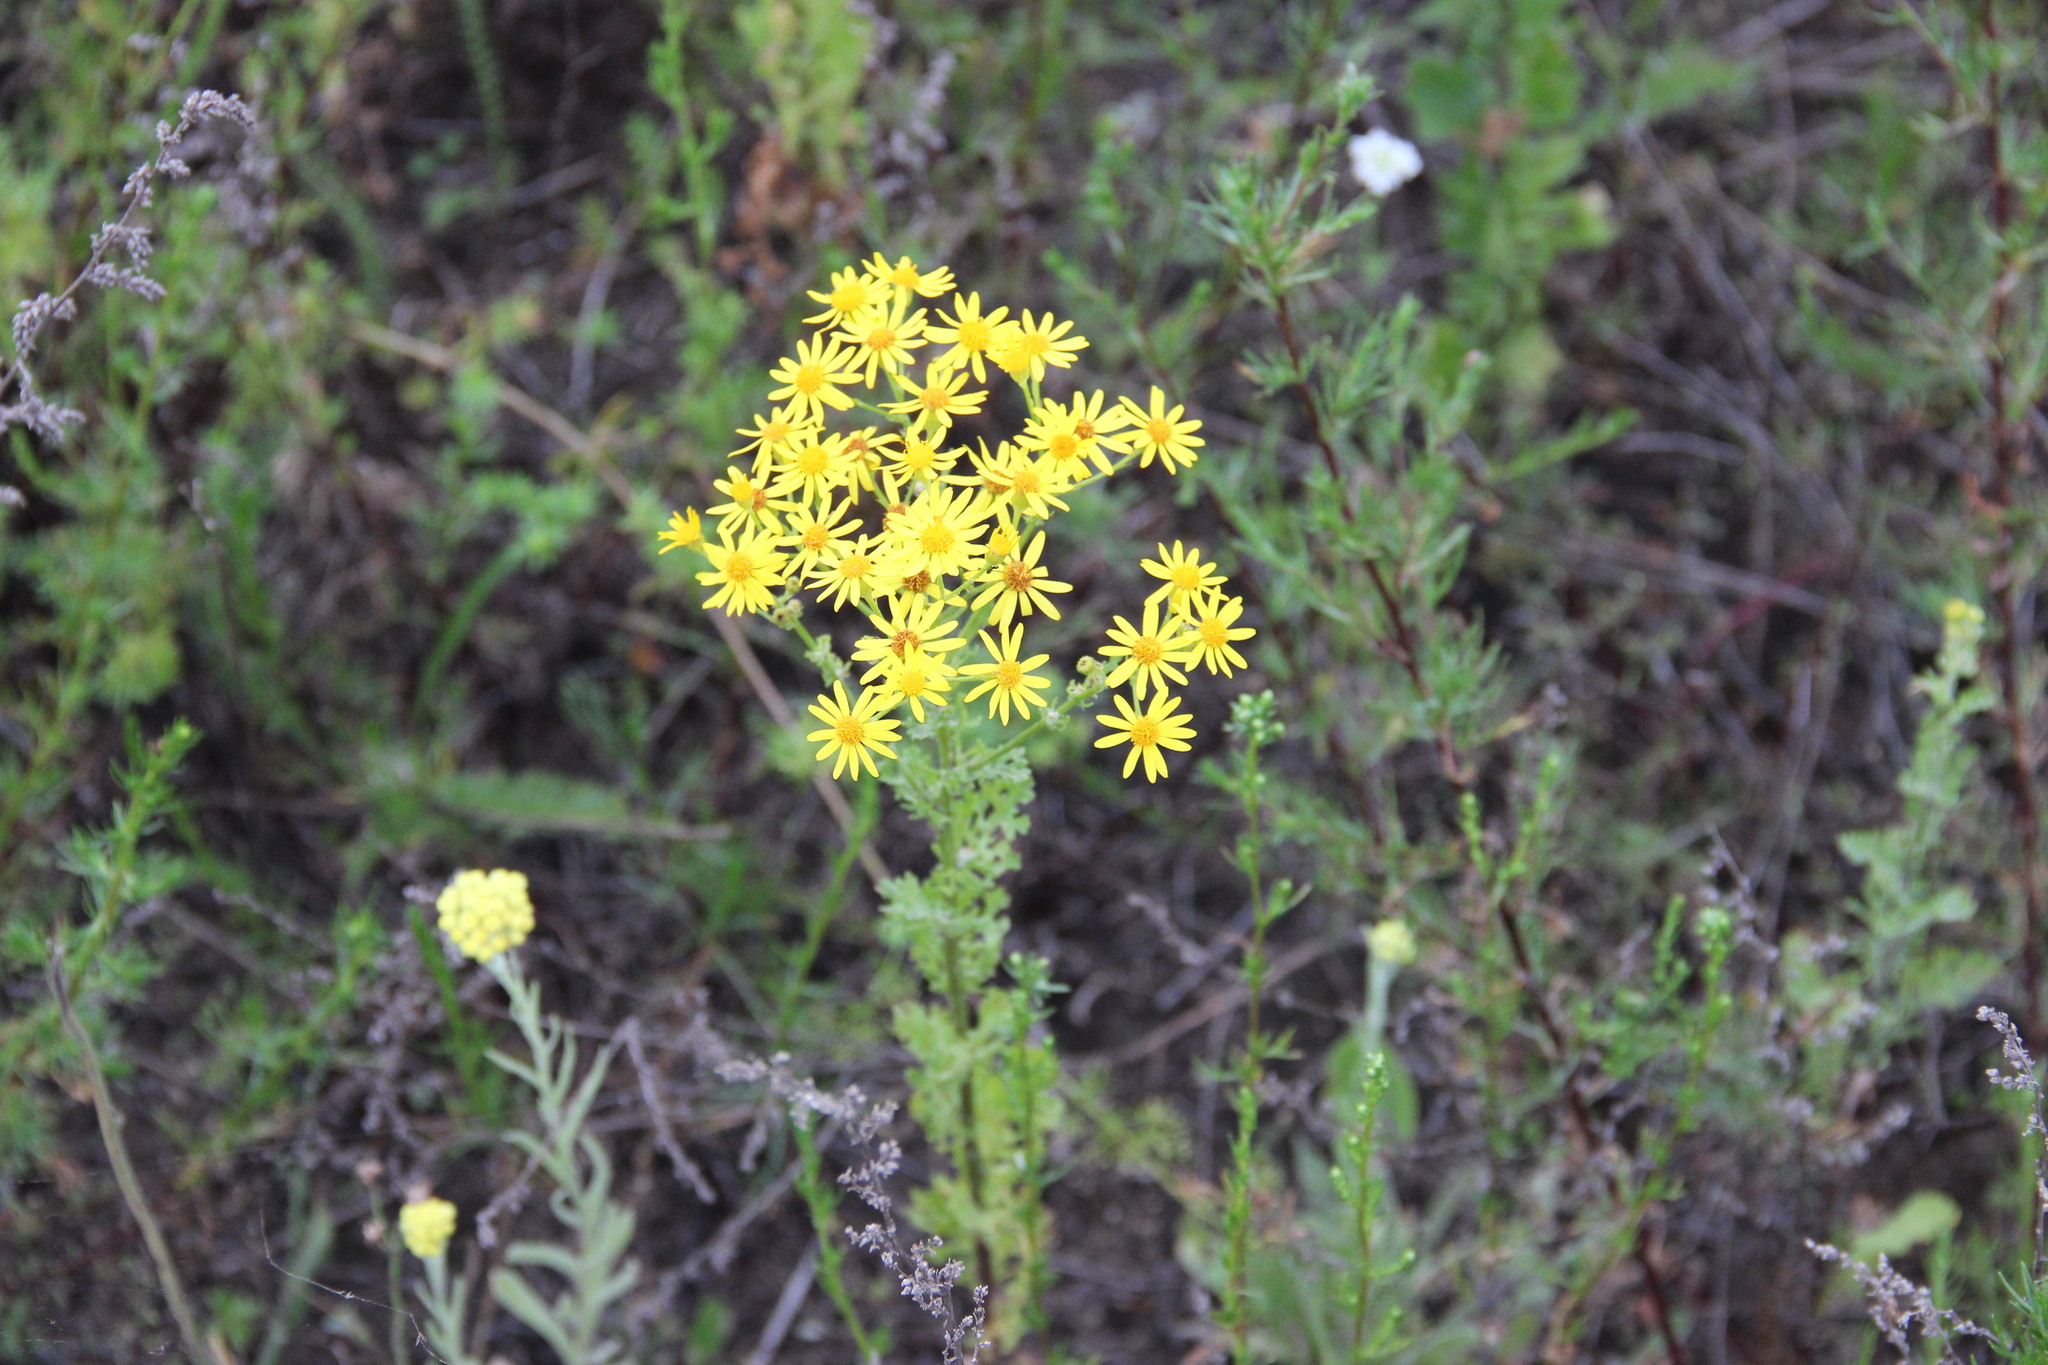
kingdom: Plantae
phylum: Tracheophyta
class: Magnoliopsida
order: Asterales
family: Asteraceae
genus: Jacobaea
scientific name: Jacobaea vulgaris
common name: Stinking willie
